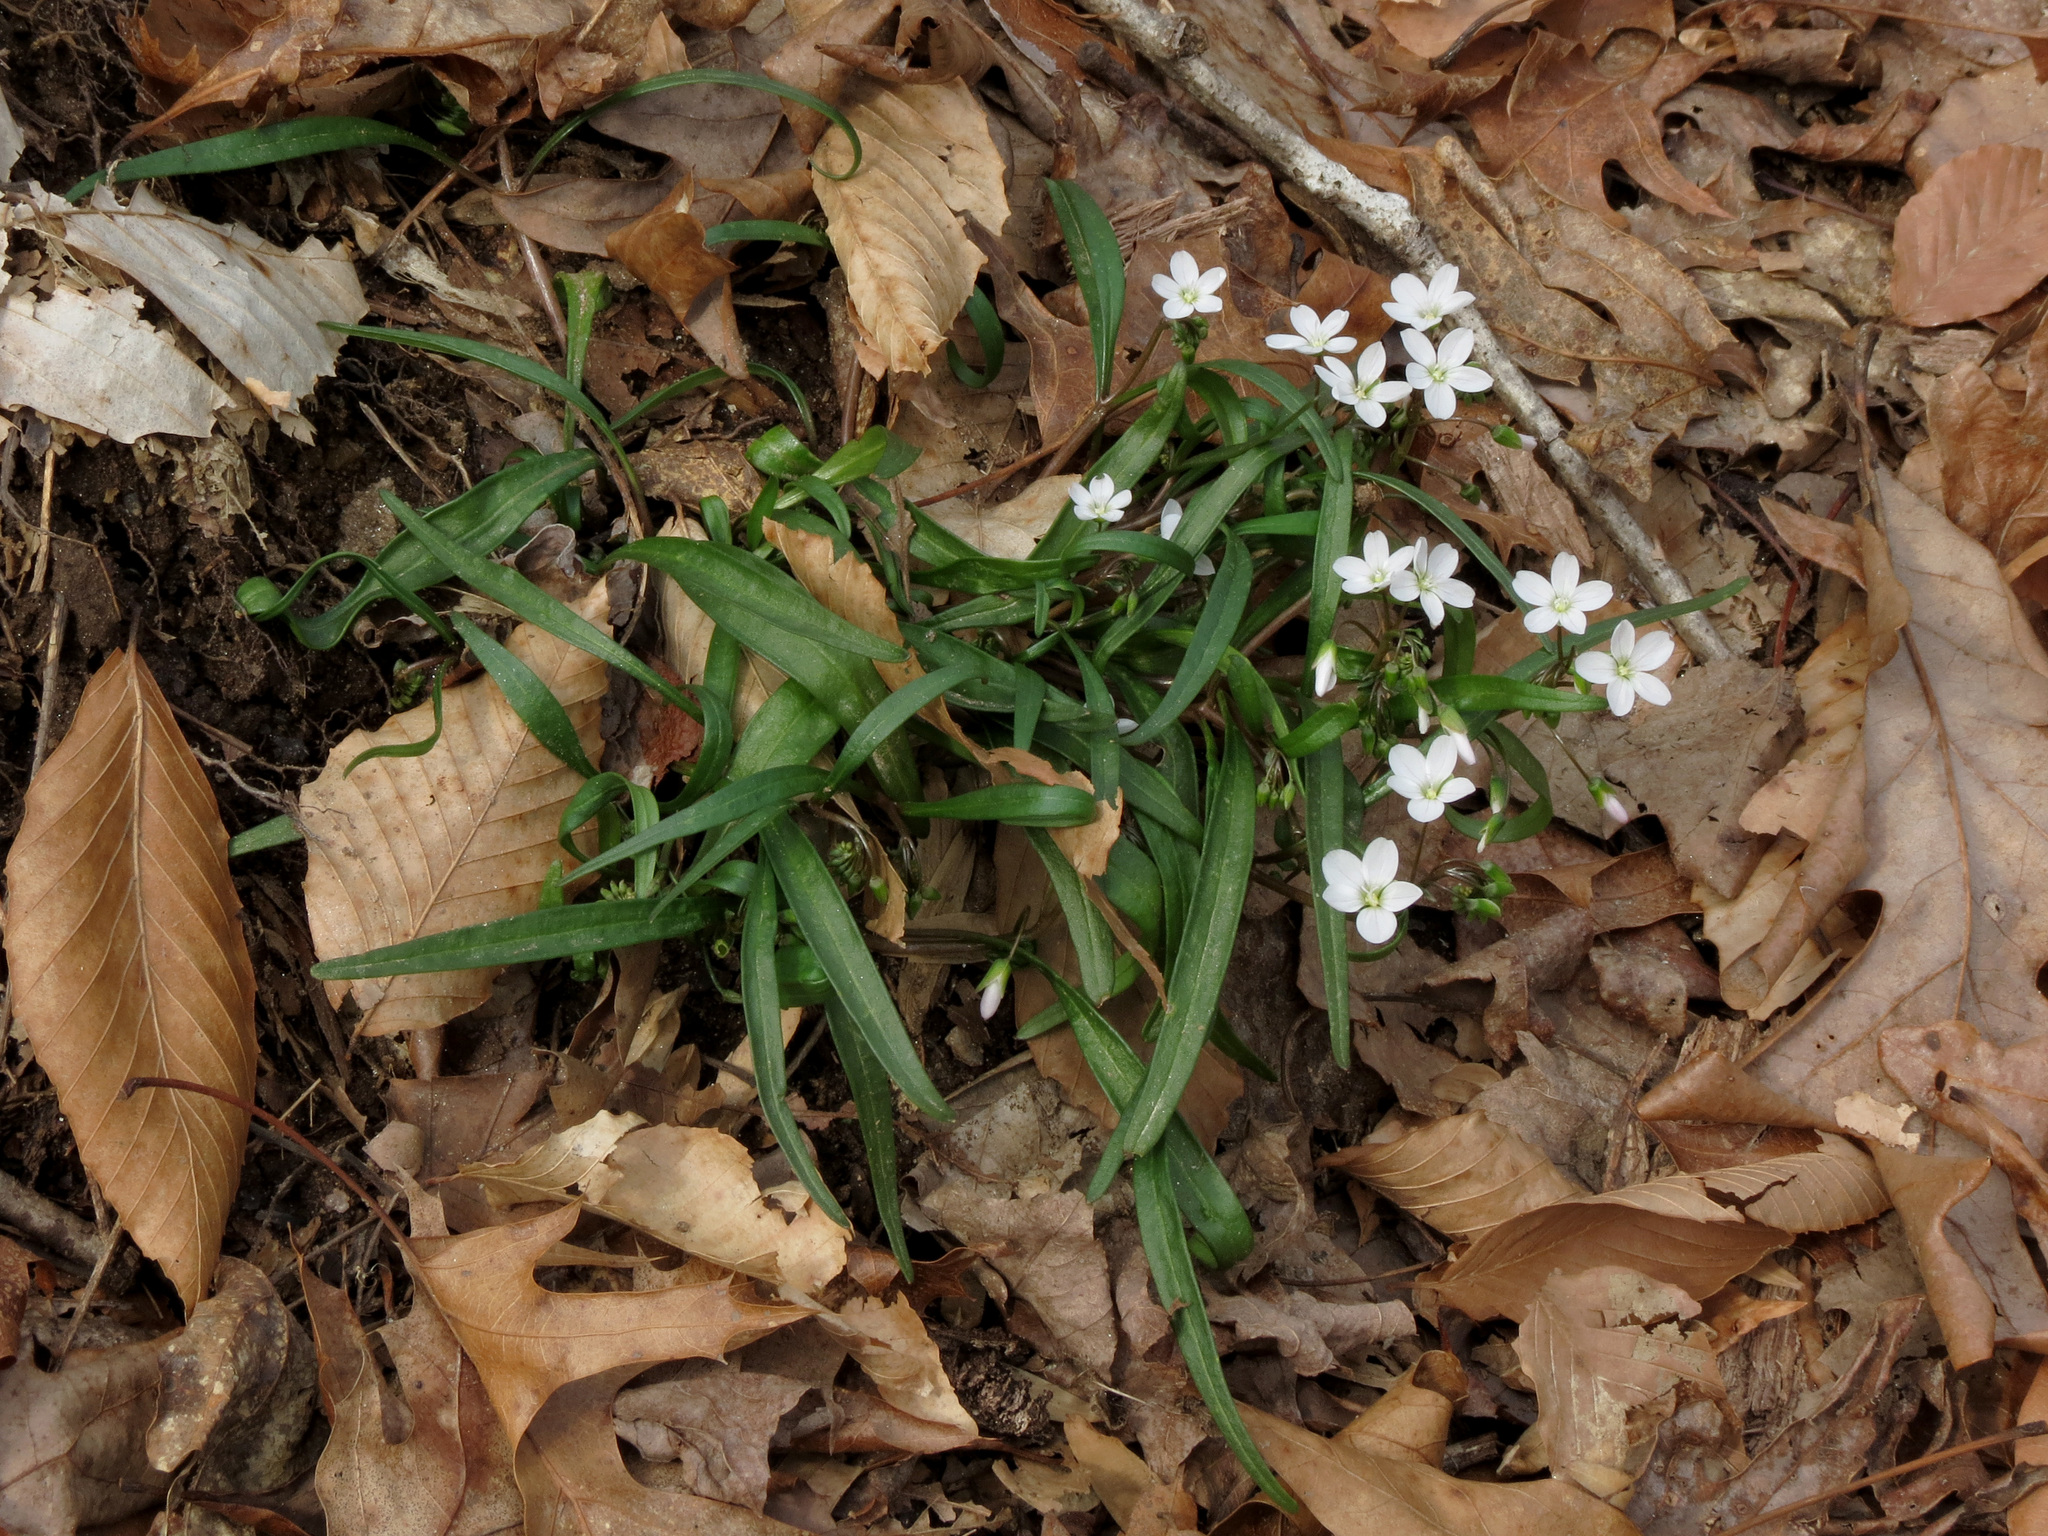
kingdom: Plantae
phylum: Tracheophyta
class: Magnoliopsida
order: Caryophyllales
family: Montiaceae
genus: Claytonia
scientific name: Claytonia virginica
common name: Virginia springbeauty
